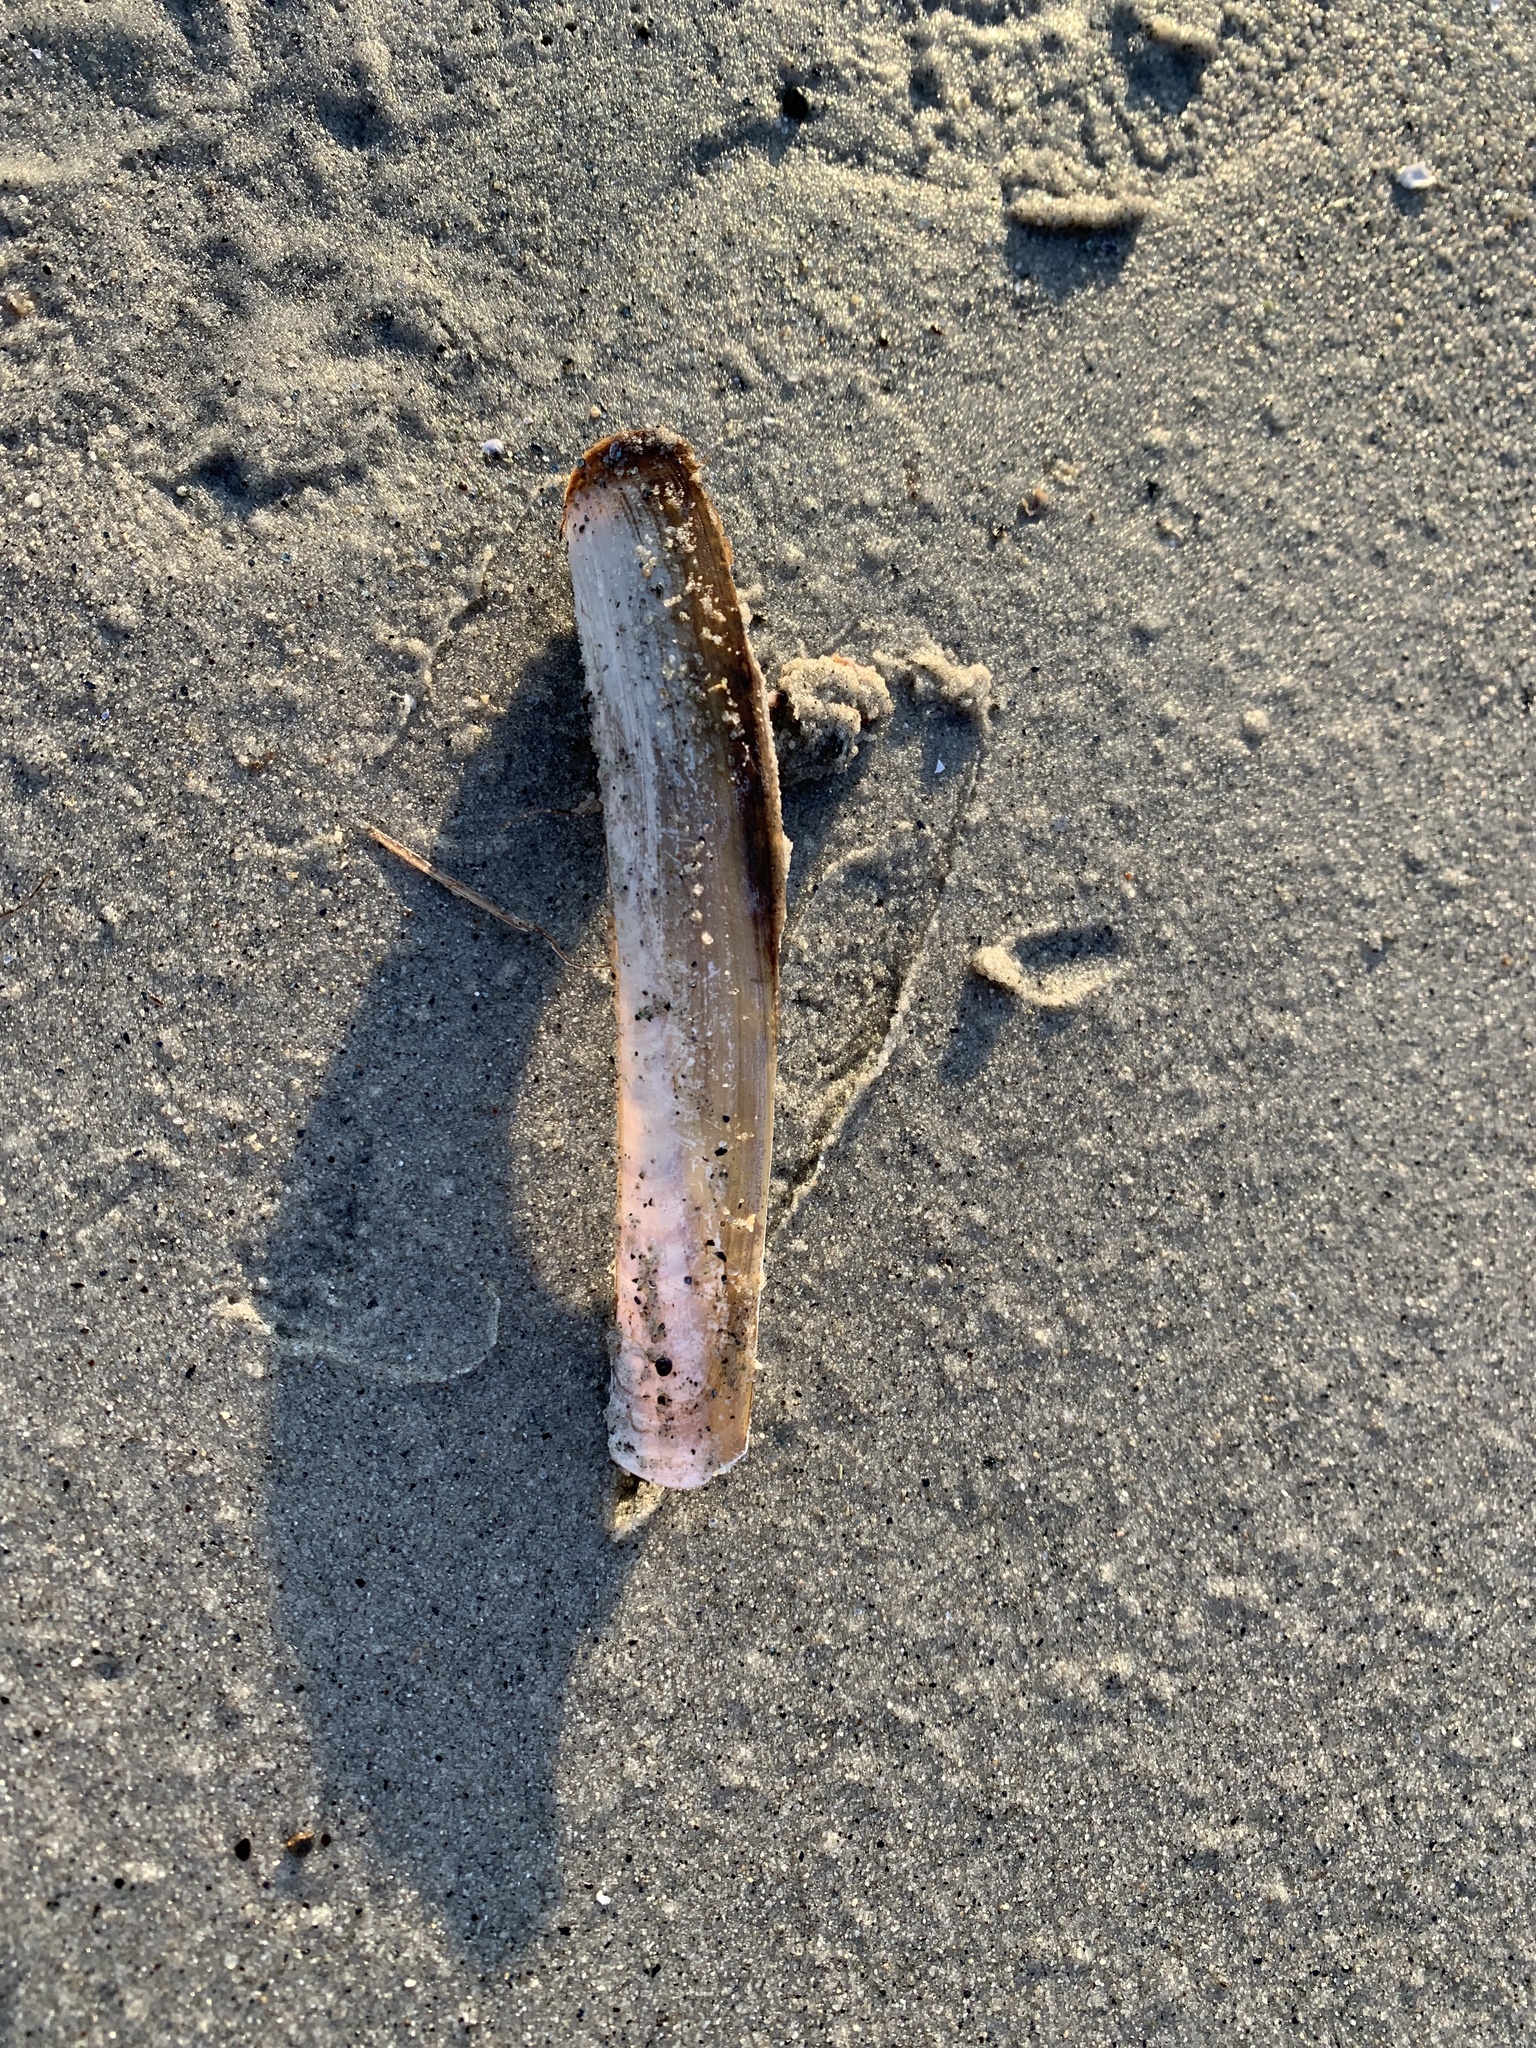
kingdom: Animalia
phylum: Mollusca
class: Bivalvia
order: Adapedonta
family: Pharidae
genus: Ensis
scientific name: Ensis leei
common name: American jack knife clam
